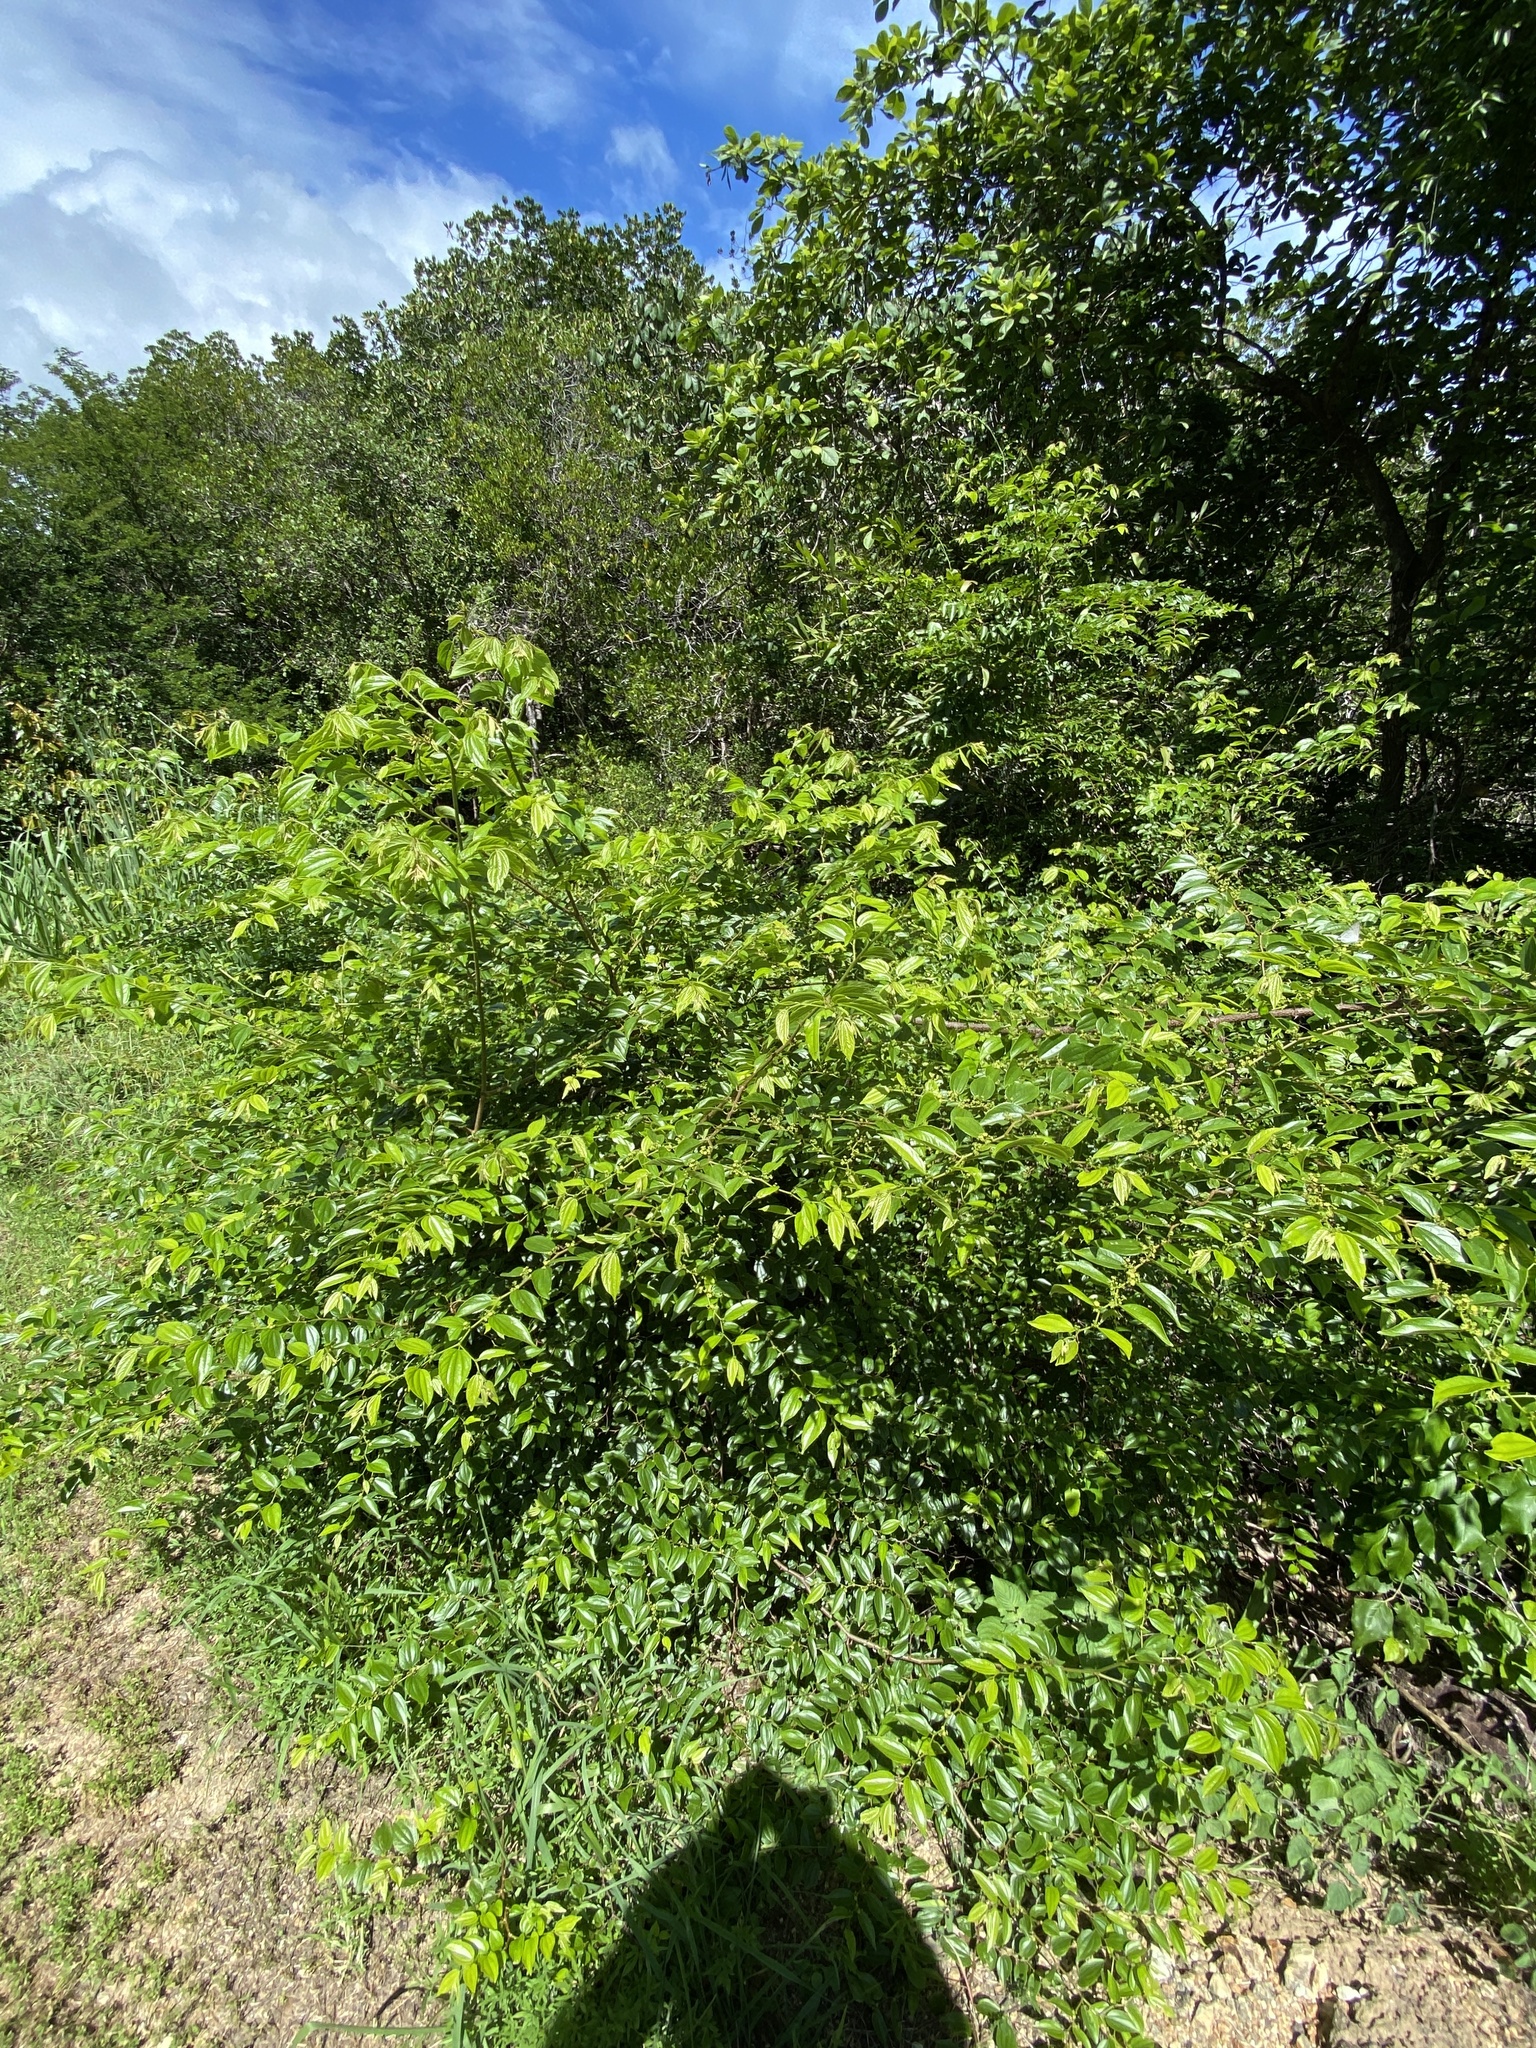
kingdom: Plantae
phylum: Tracheophyta
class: Magnoliopsida
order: Rosales
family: Rhamnaceae
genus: Colubrina
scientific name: Colubrina asiatica
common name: Asian nakedwood
